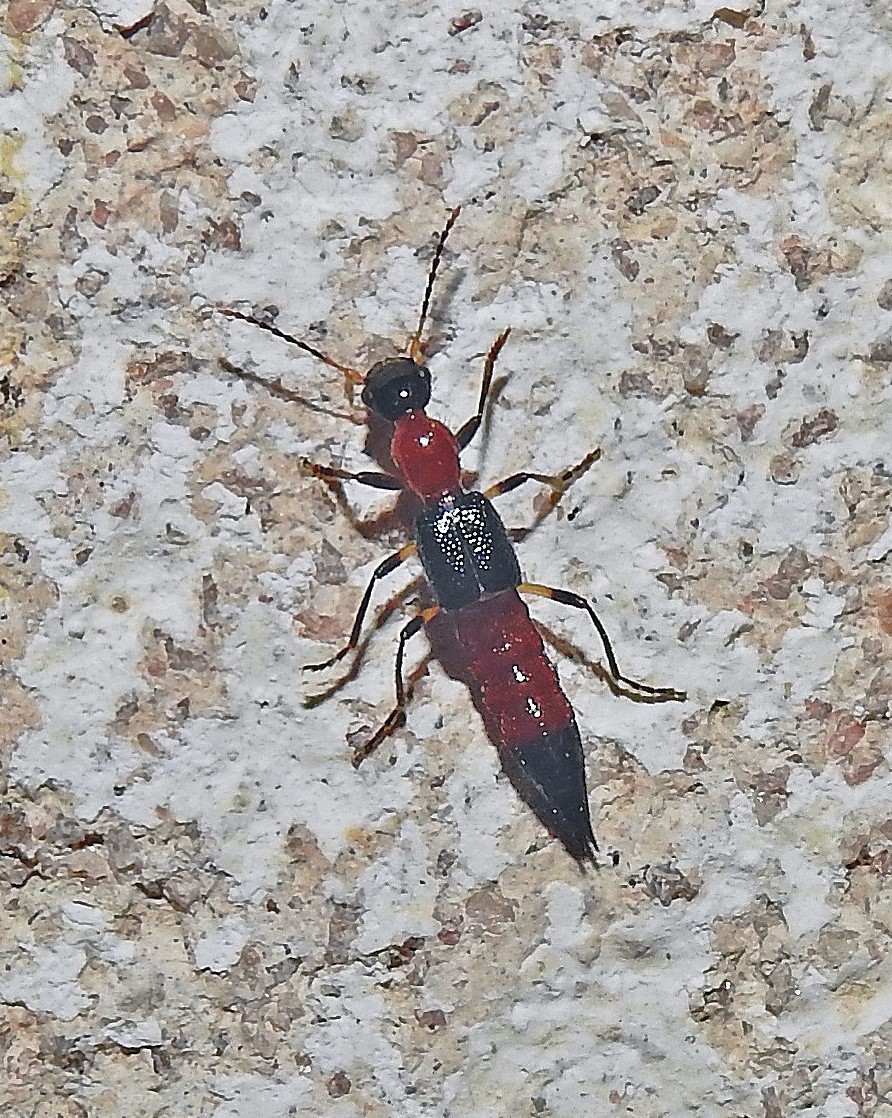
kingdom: Animalia
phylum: Arthropoda
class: Insecta
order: Coleoptera
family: Staphylinidae
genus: Paederus
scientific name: Paederus
